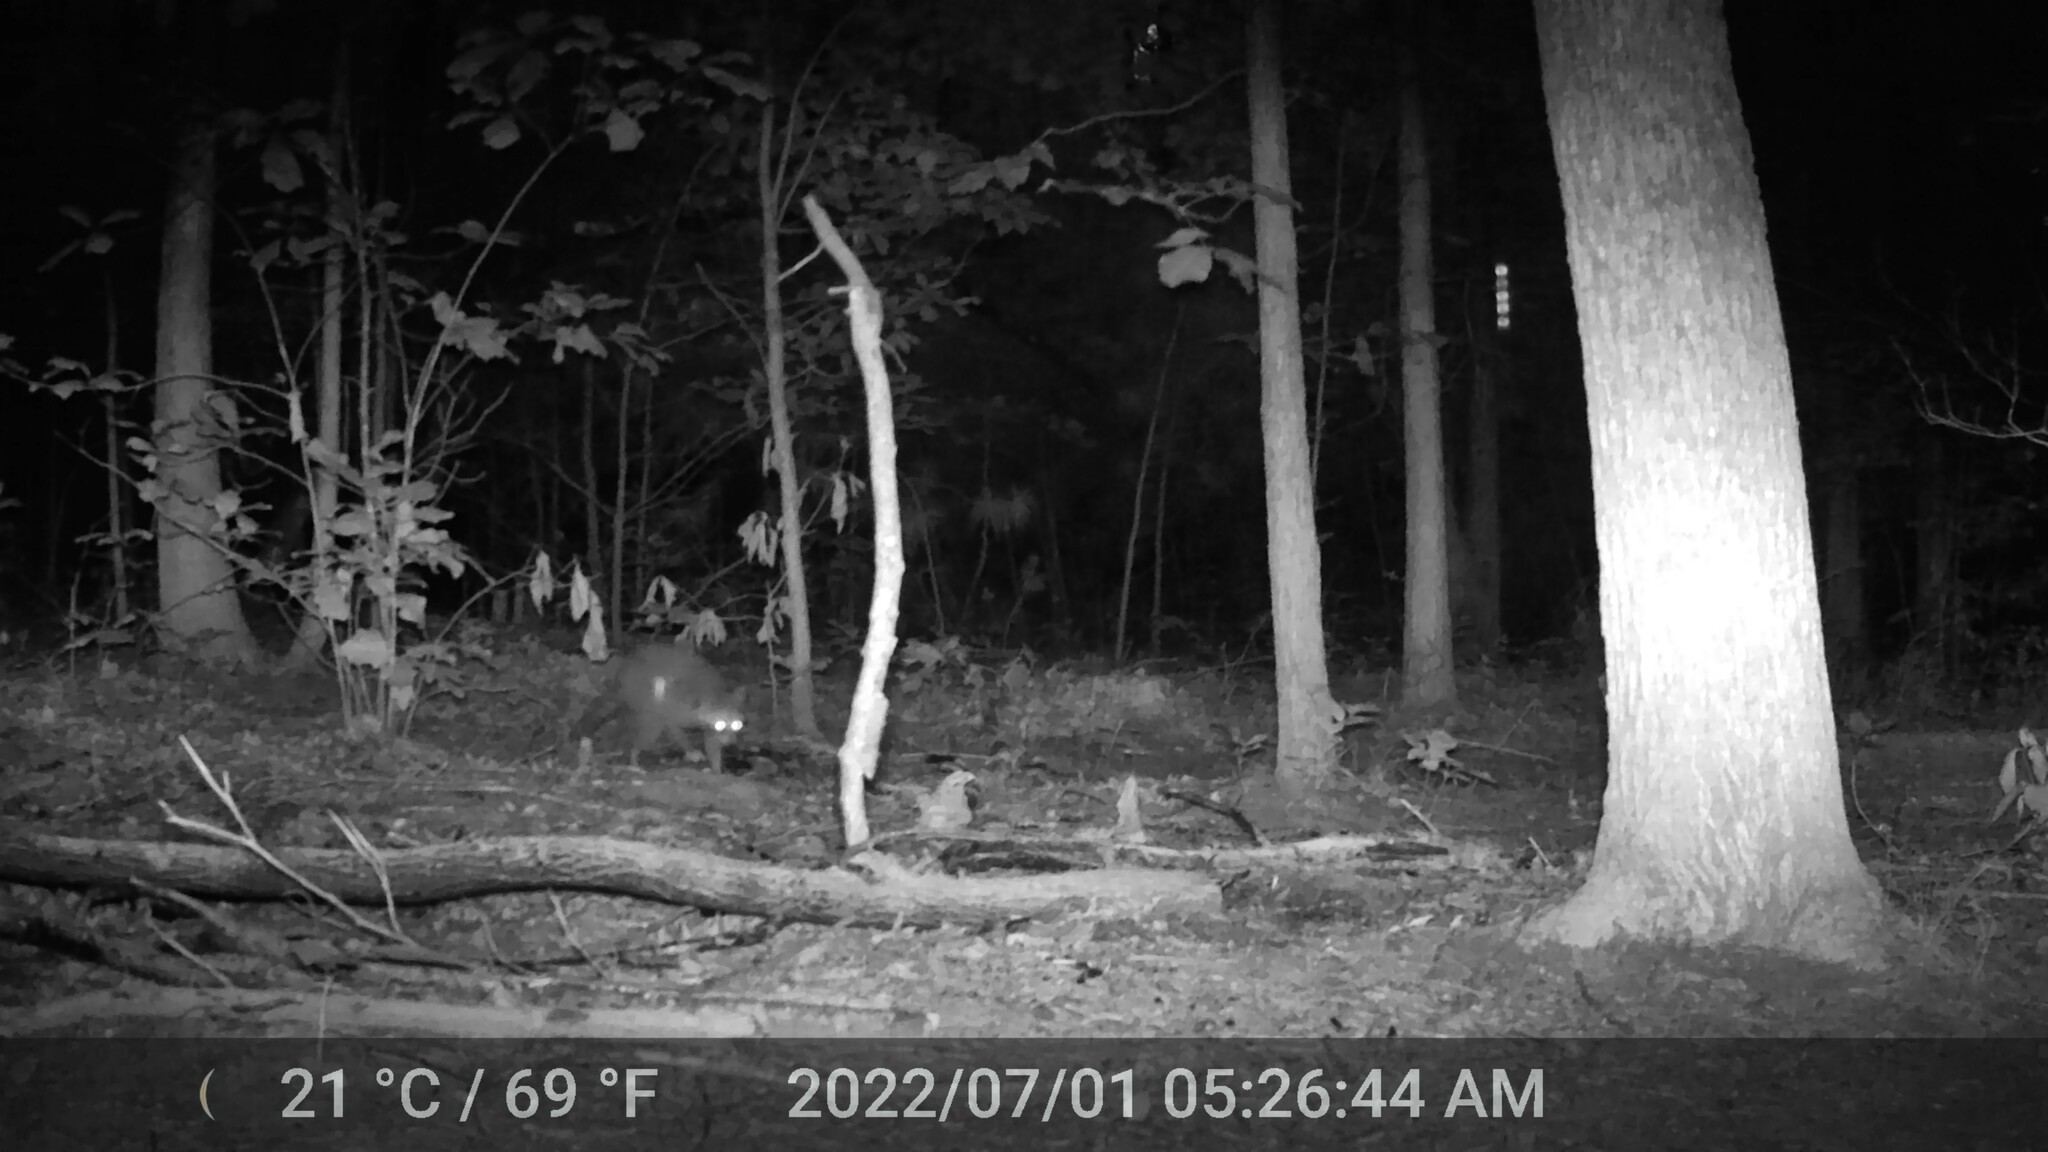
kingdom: Animalia
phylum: Chordata
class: Mammalia
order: Carnivora
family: Procyonidae
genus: Procyon
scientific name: Procyon lotor
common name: Raccoon
